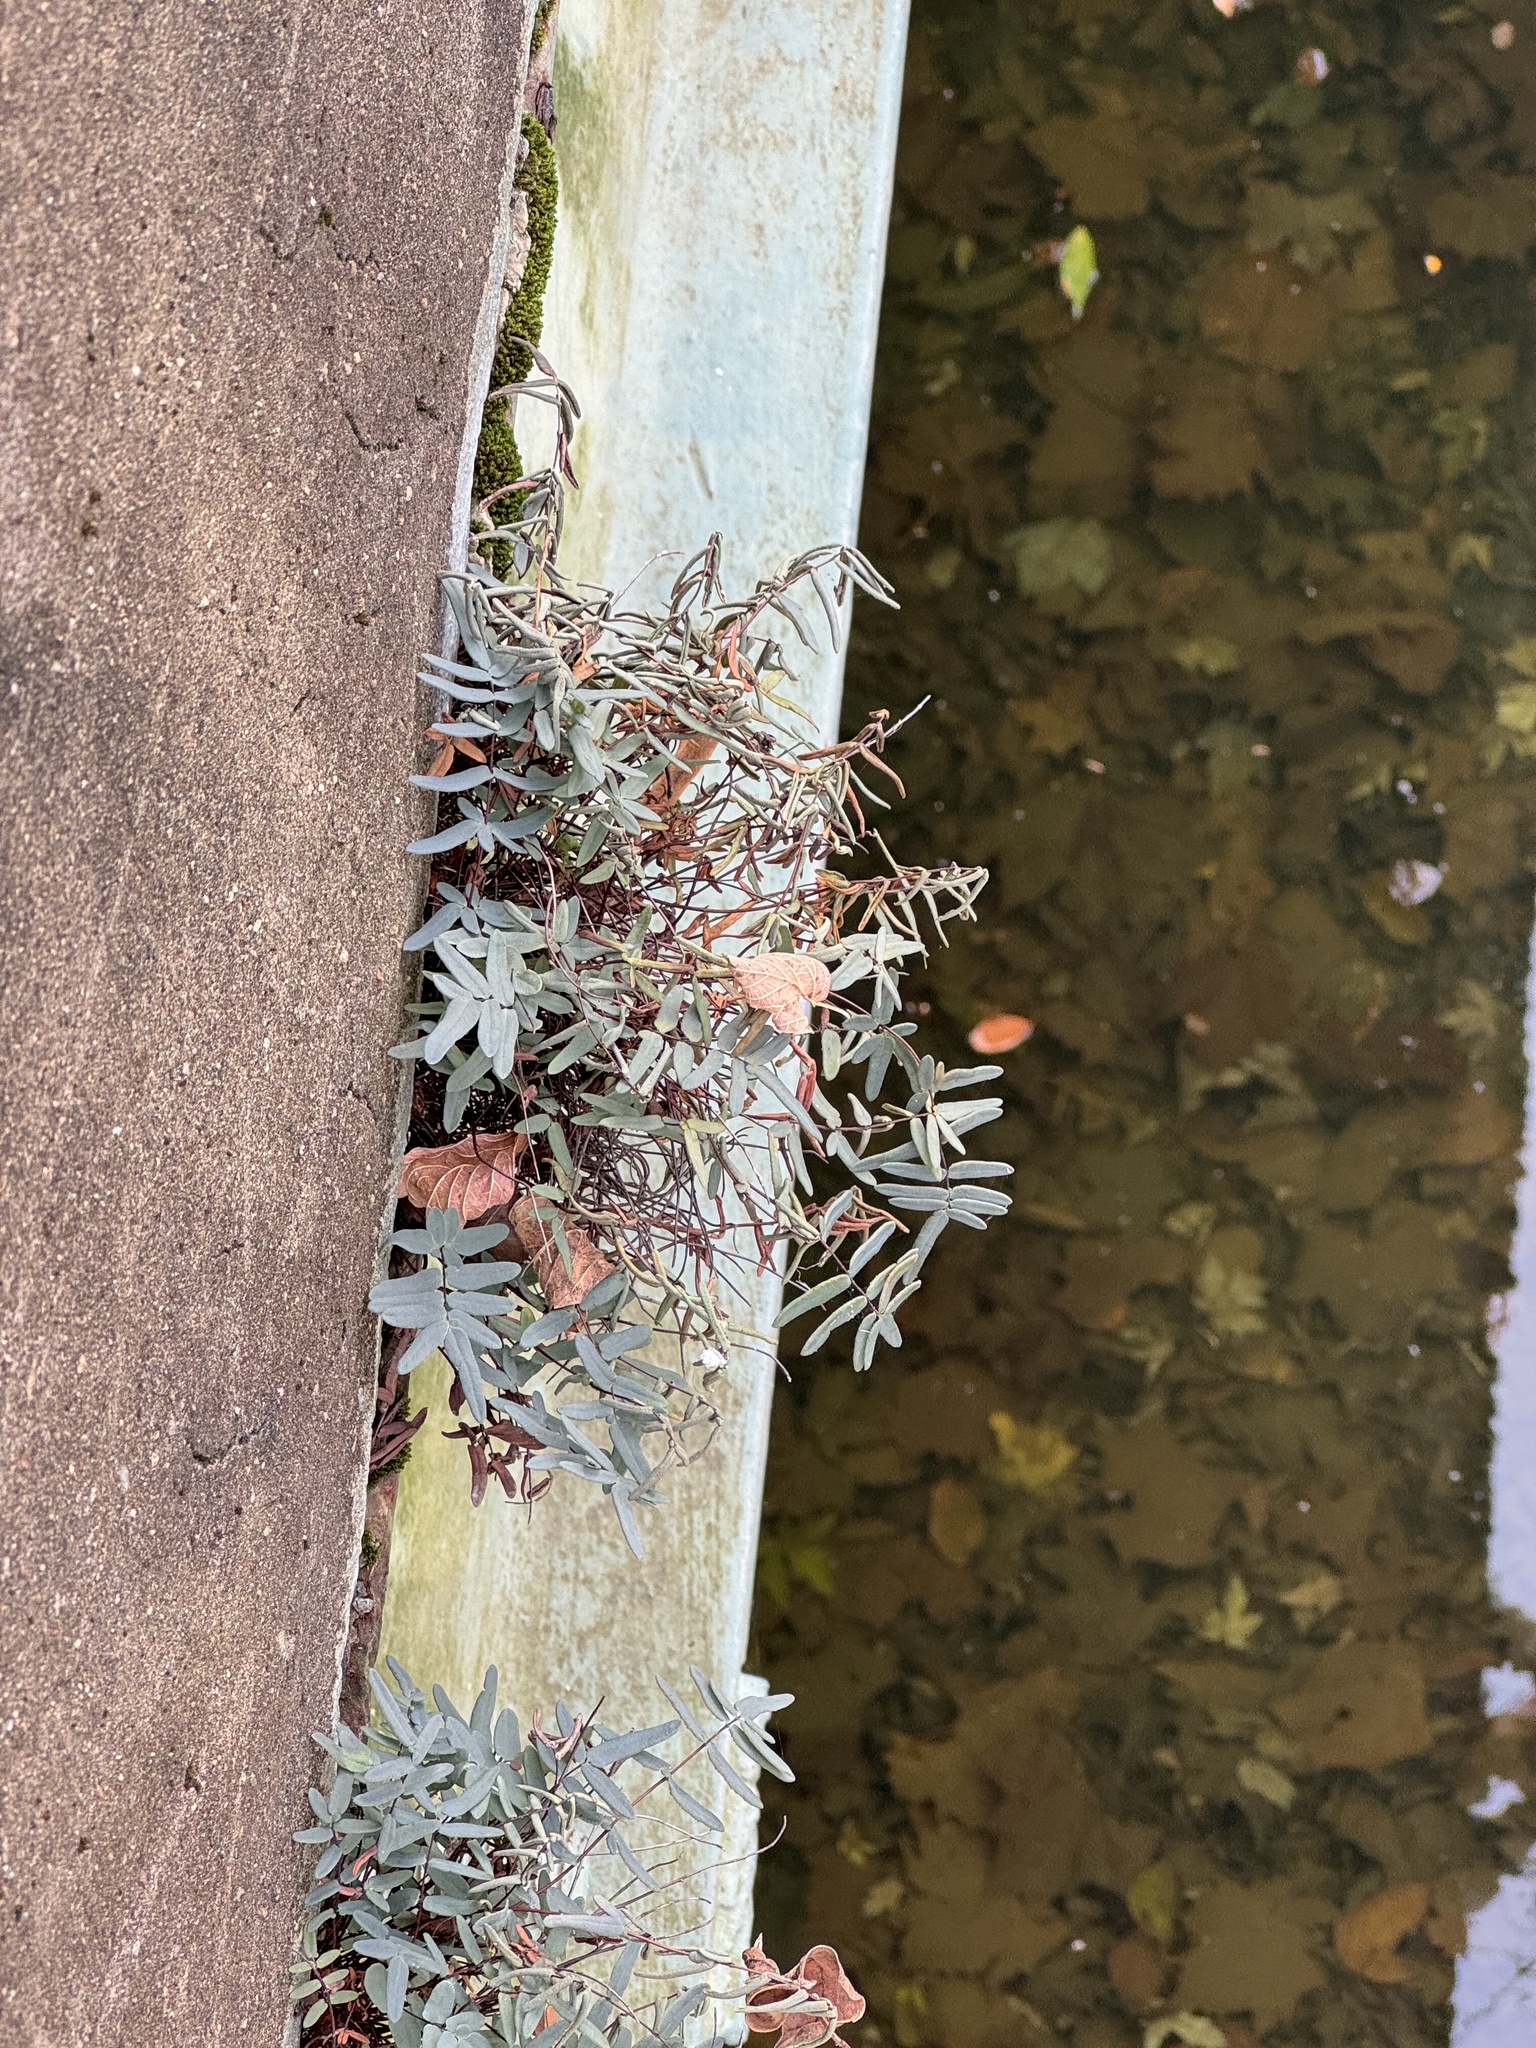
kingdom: Plantae
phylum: Tracheophyta
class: Polypodiopsida
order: Polypodiales
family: Pteridaceae
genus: Pellaea
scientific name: Pellaea atropurpurea
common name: Hairy cliffbrake
